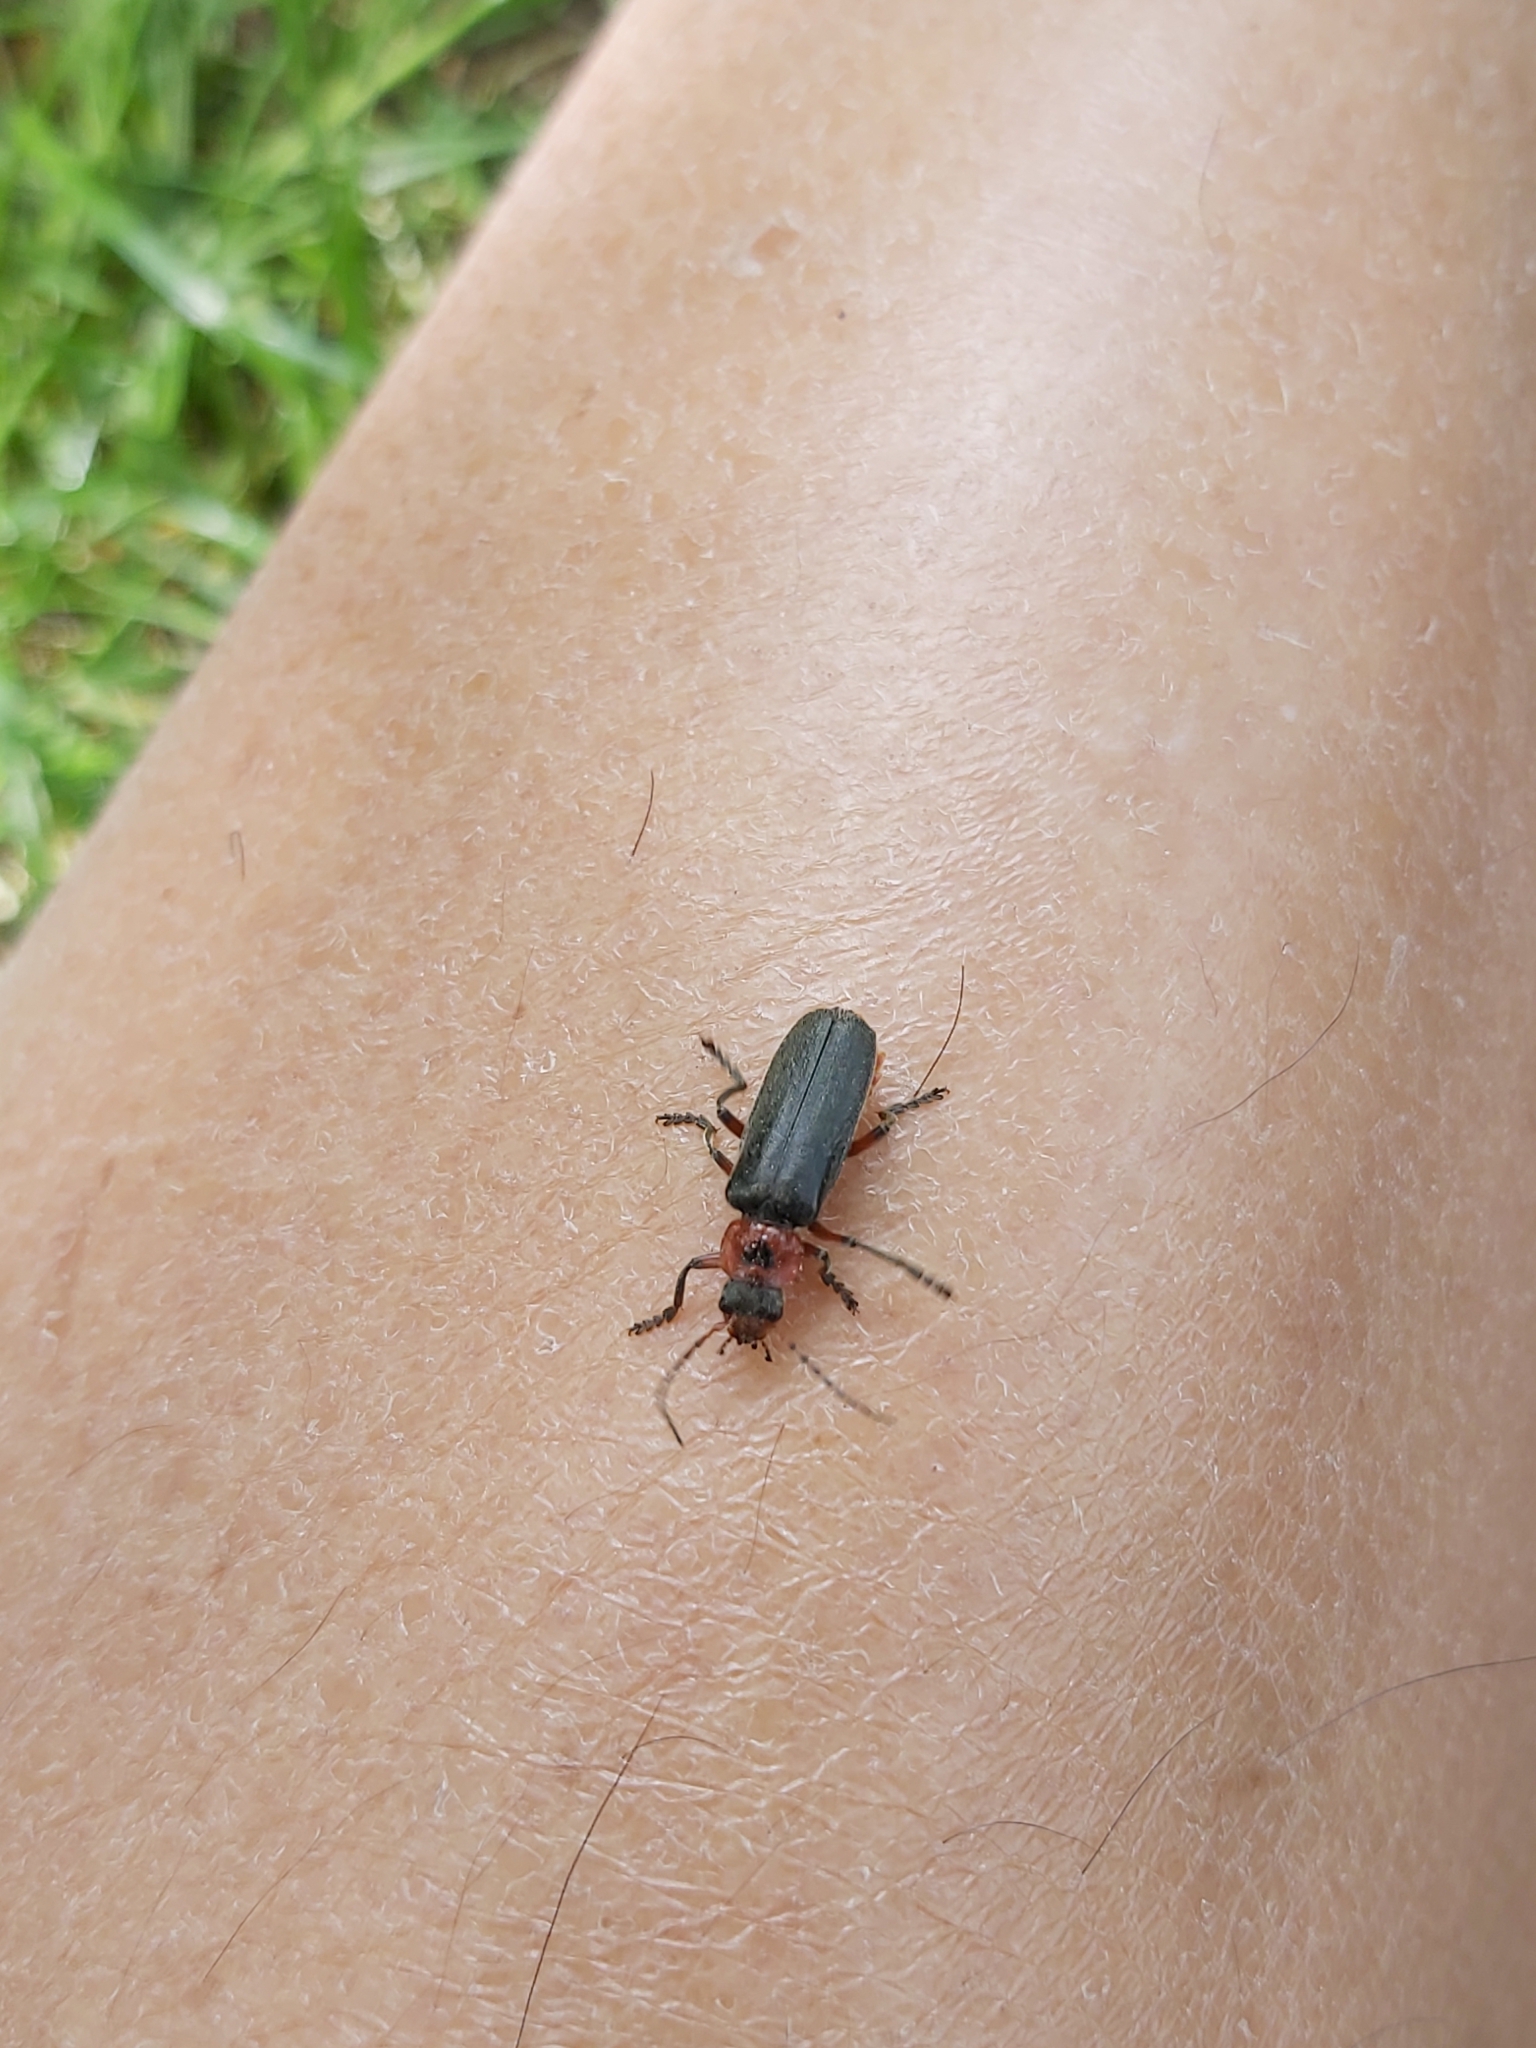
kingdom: Animalia
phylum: Arthropoda
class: Insecta
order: Coleoptera
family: Cantharidae
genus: Cantharis
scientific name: Cantharis rustica
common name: Soldier beetle
